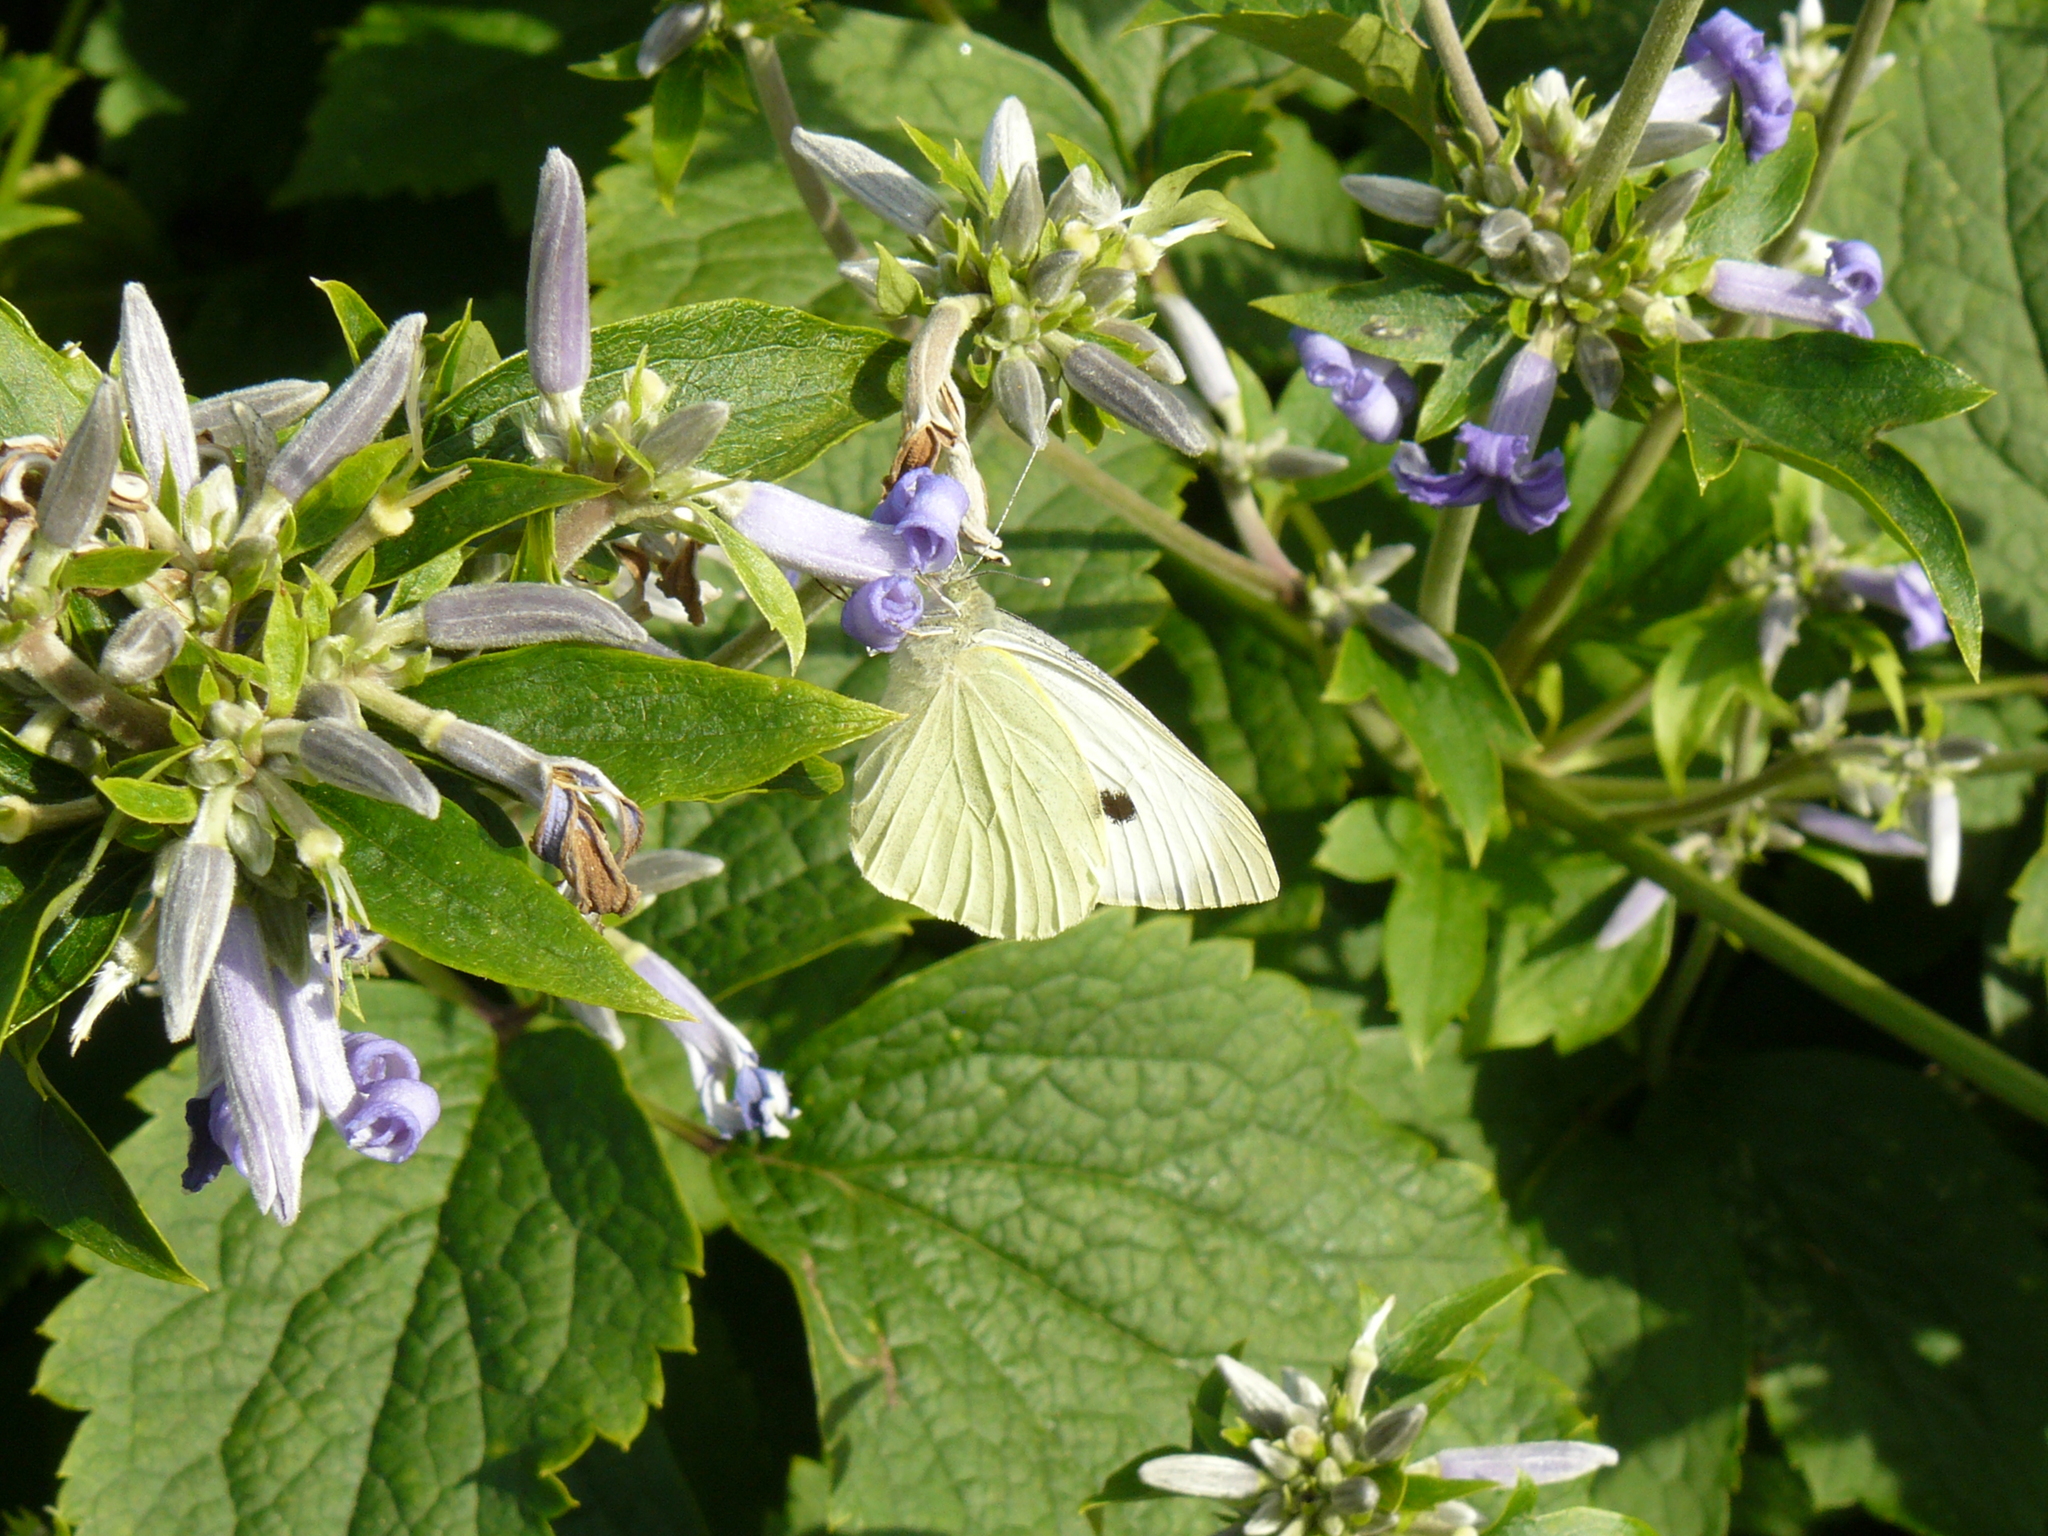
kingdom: Animalia
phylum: Arthropoda
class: Insecta
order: Lepidoptera
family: Pieridae
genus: Pieris
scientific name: Pieris brassicae
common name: Large white
